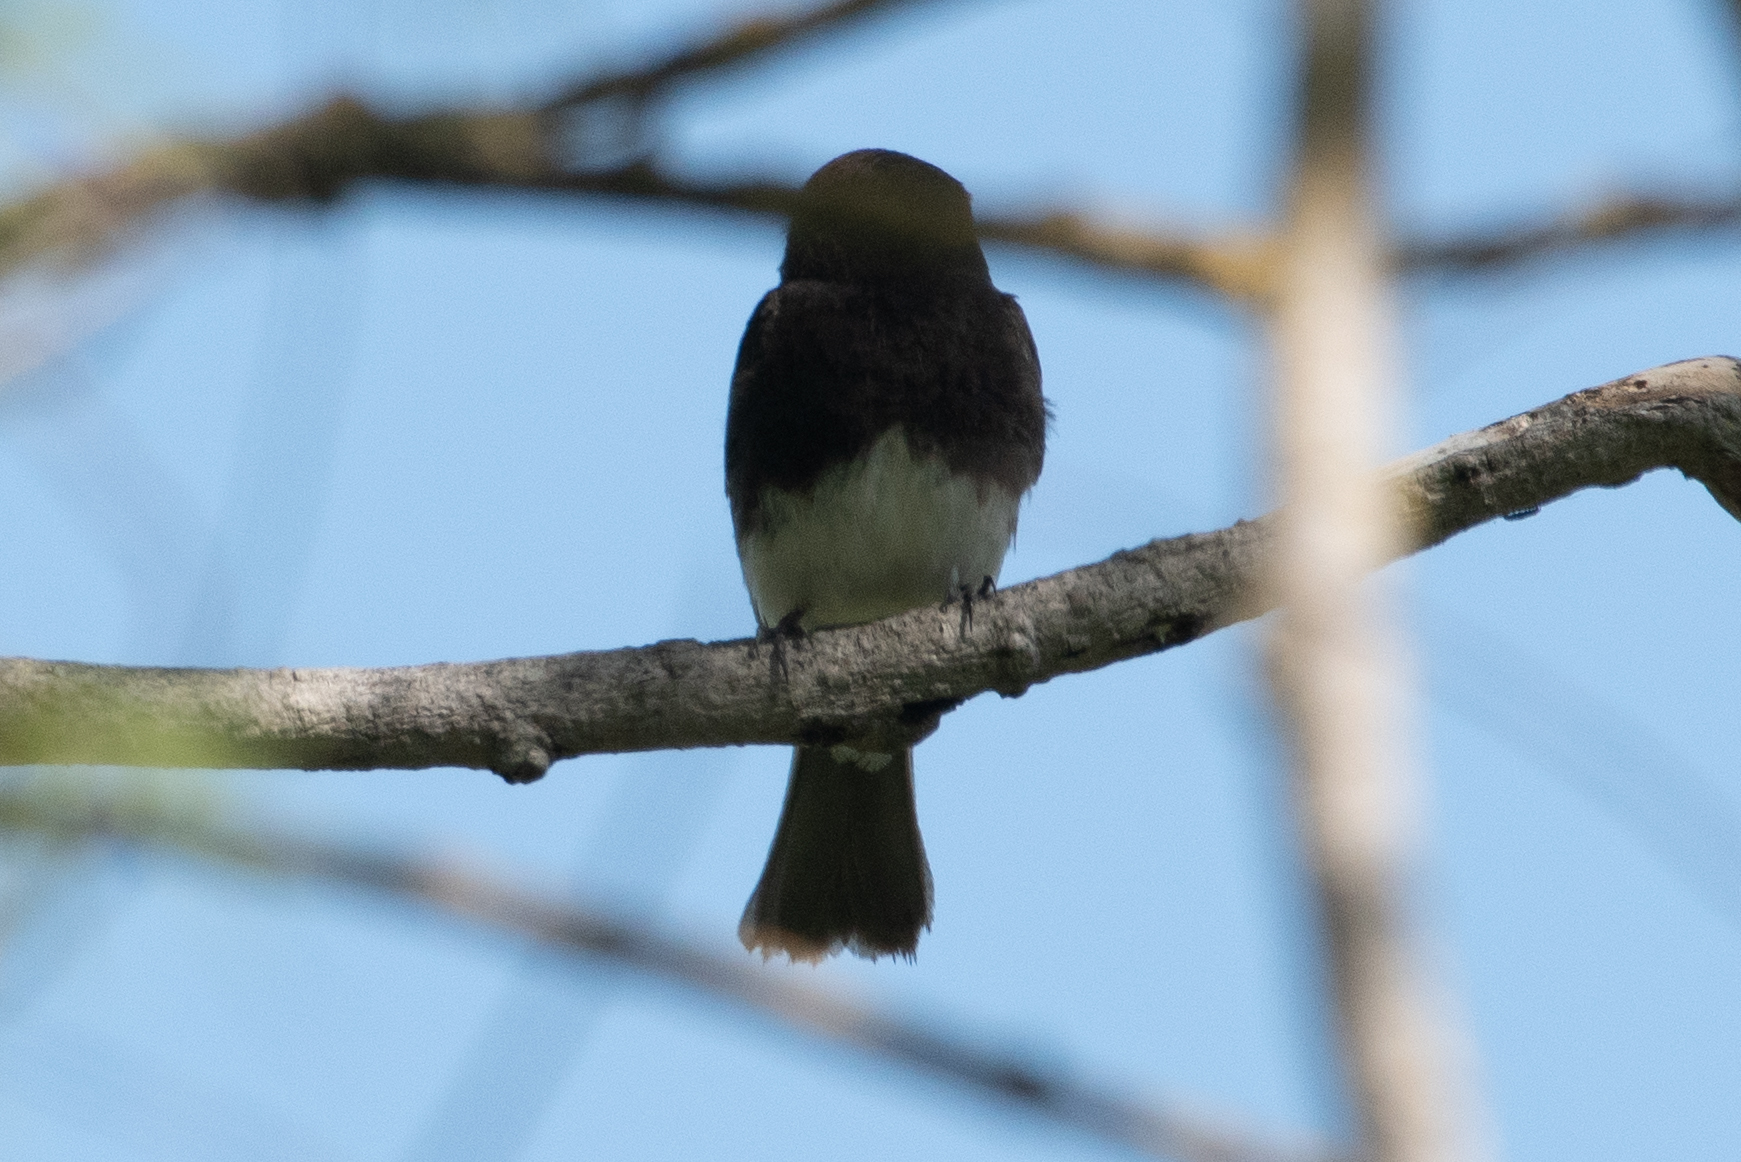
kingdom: Animalia
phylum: Chordata
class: Aves
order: Passeriformes
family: Tyrannidae
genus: Sayornis
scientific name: Sayornis nigricans
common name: Black phoebe
